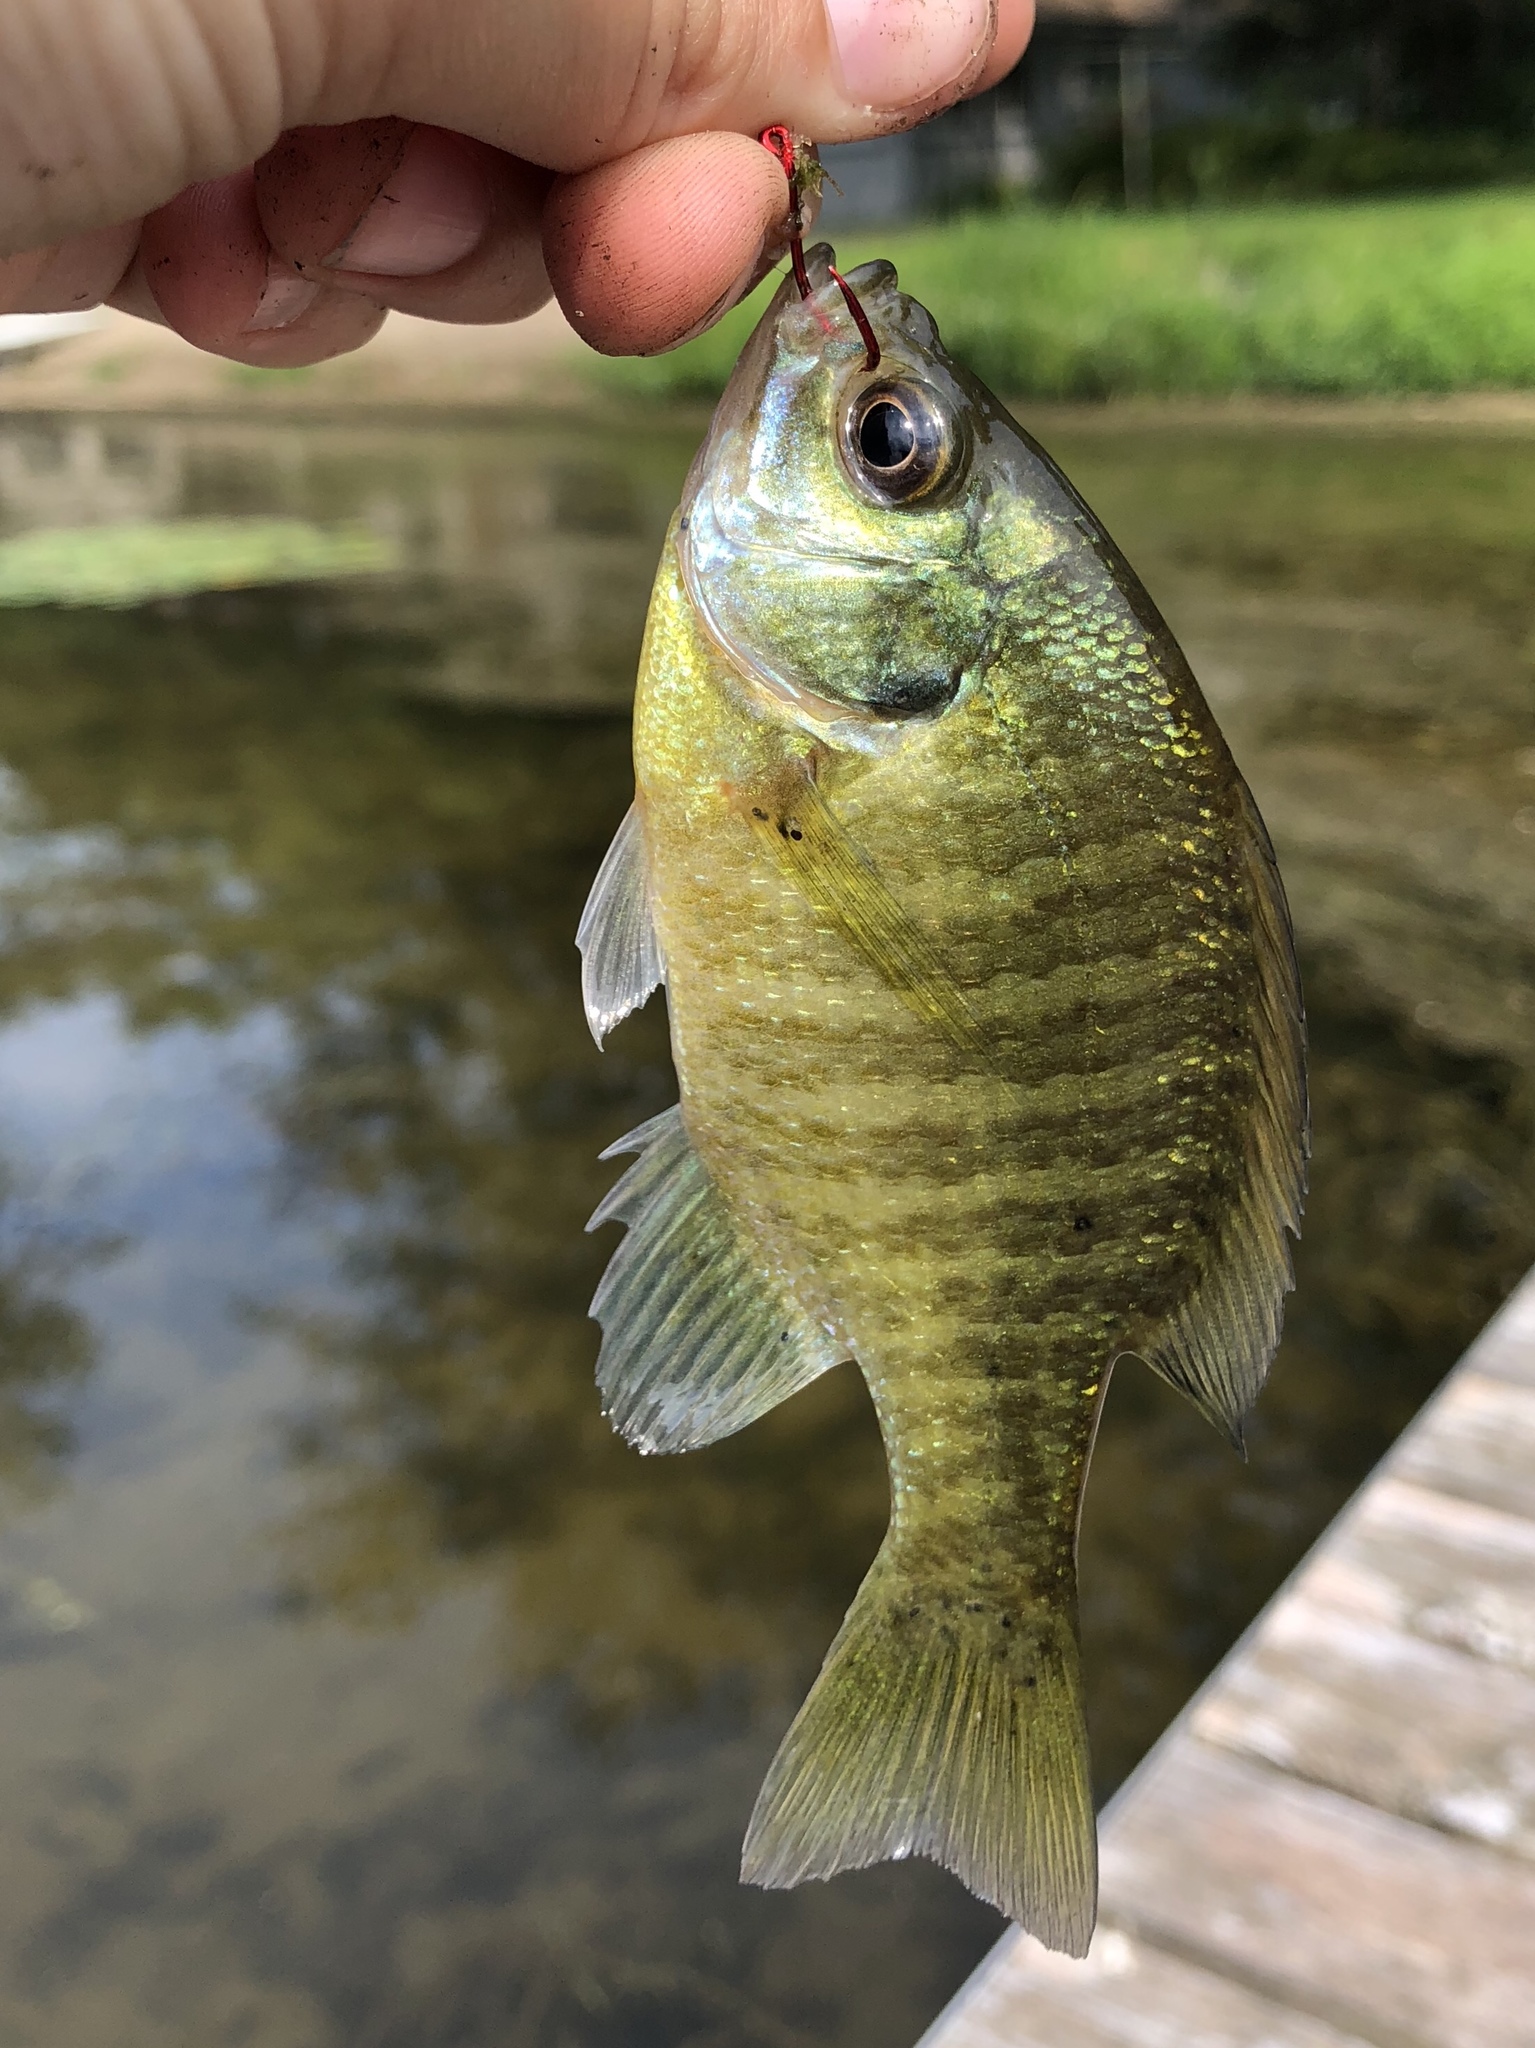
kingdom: Animalia
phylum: Chordata
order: Perciformes
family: Centrarchidae
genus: Lepomis
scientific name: Lepomis macrochirus
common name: Bluegill
